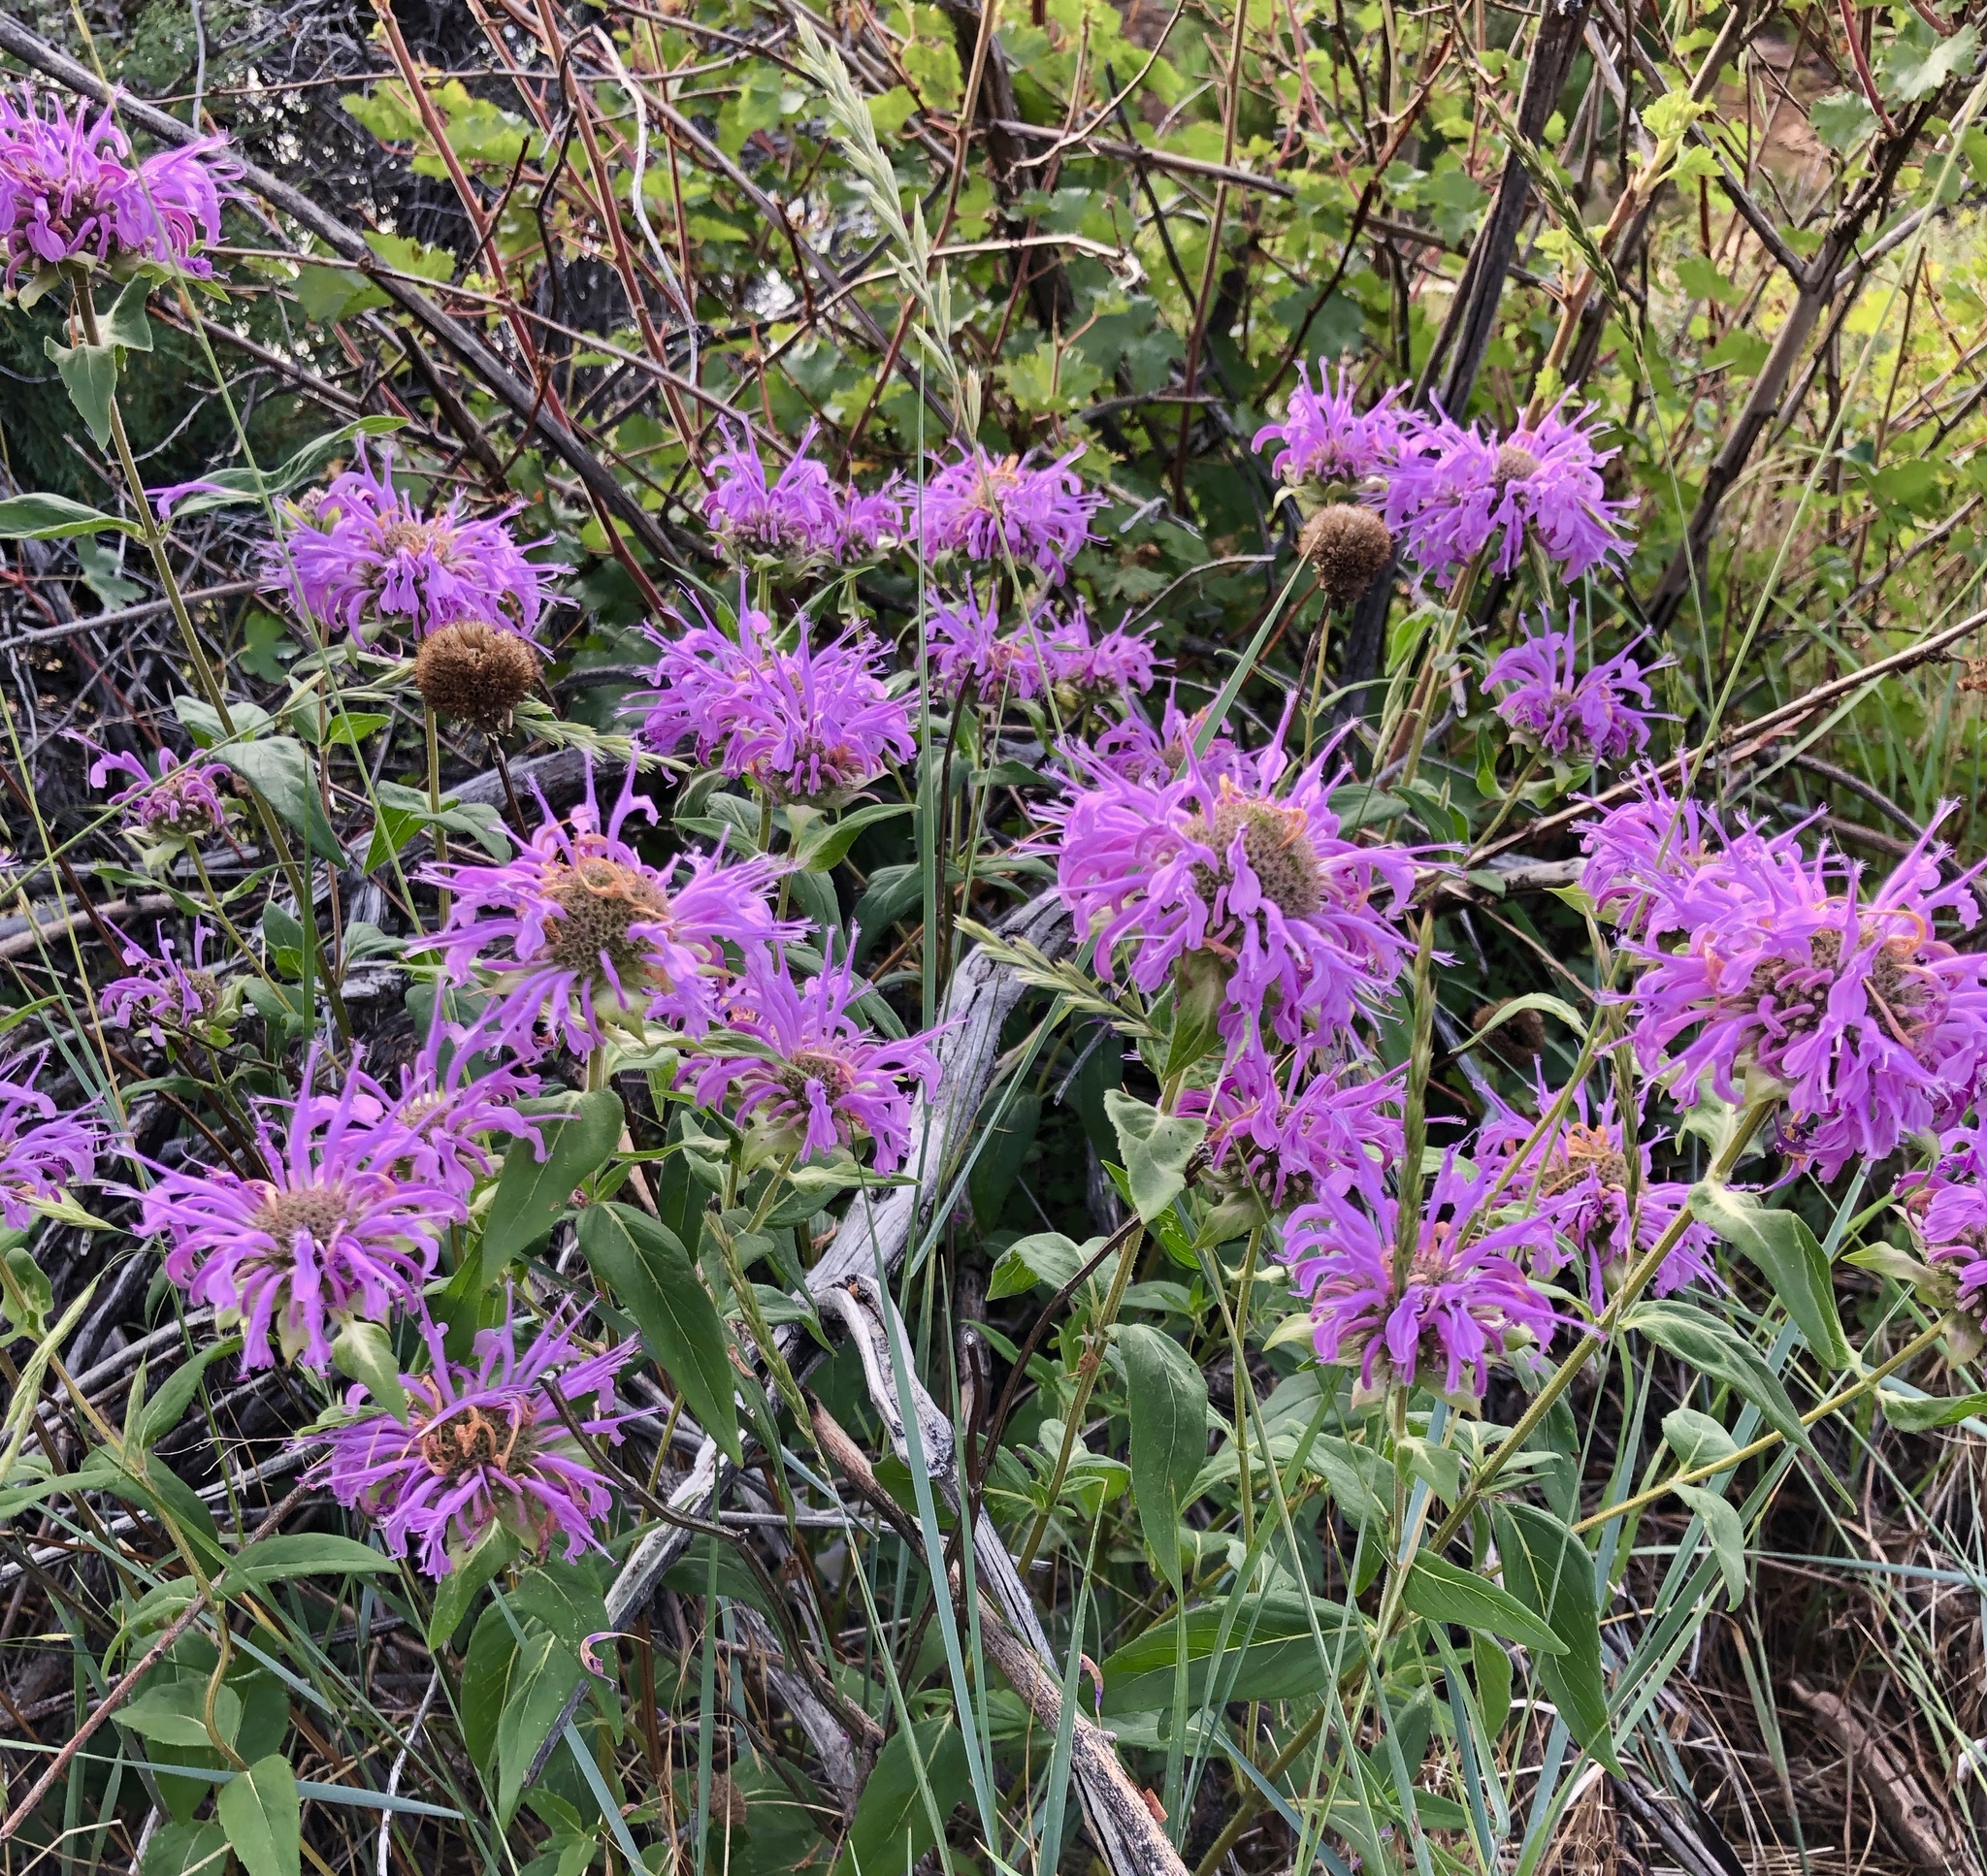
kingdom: Plantae
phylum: Tracheophyta
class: Magnoliopsida
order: Lamiales
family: Lamiaceae
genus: Monarda
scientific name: Monarda fistulosa
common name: Purple beebalm
